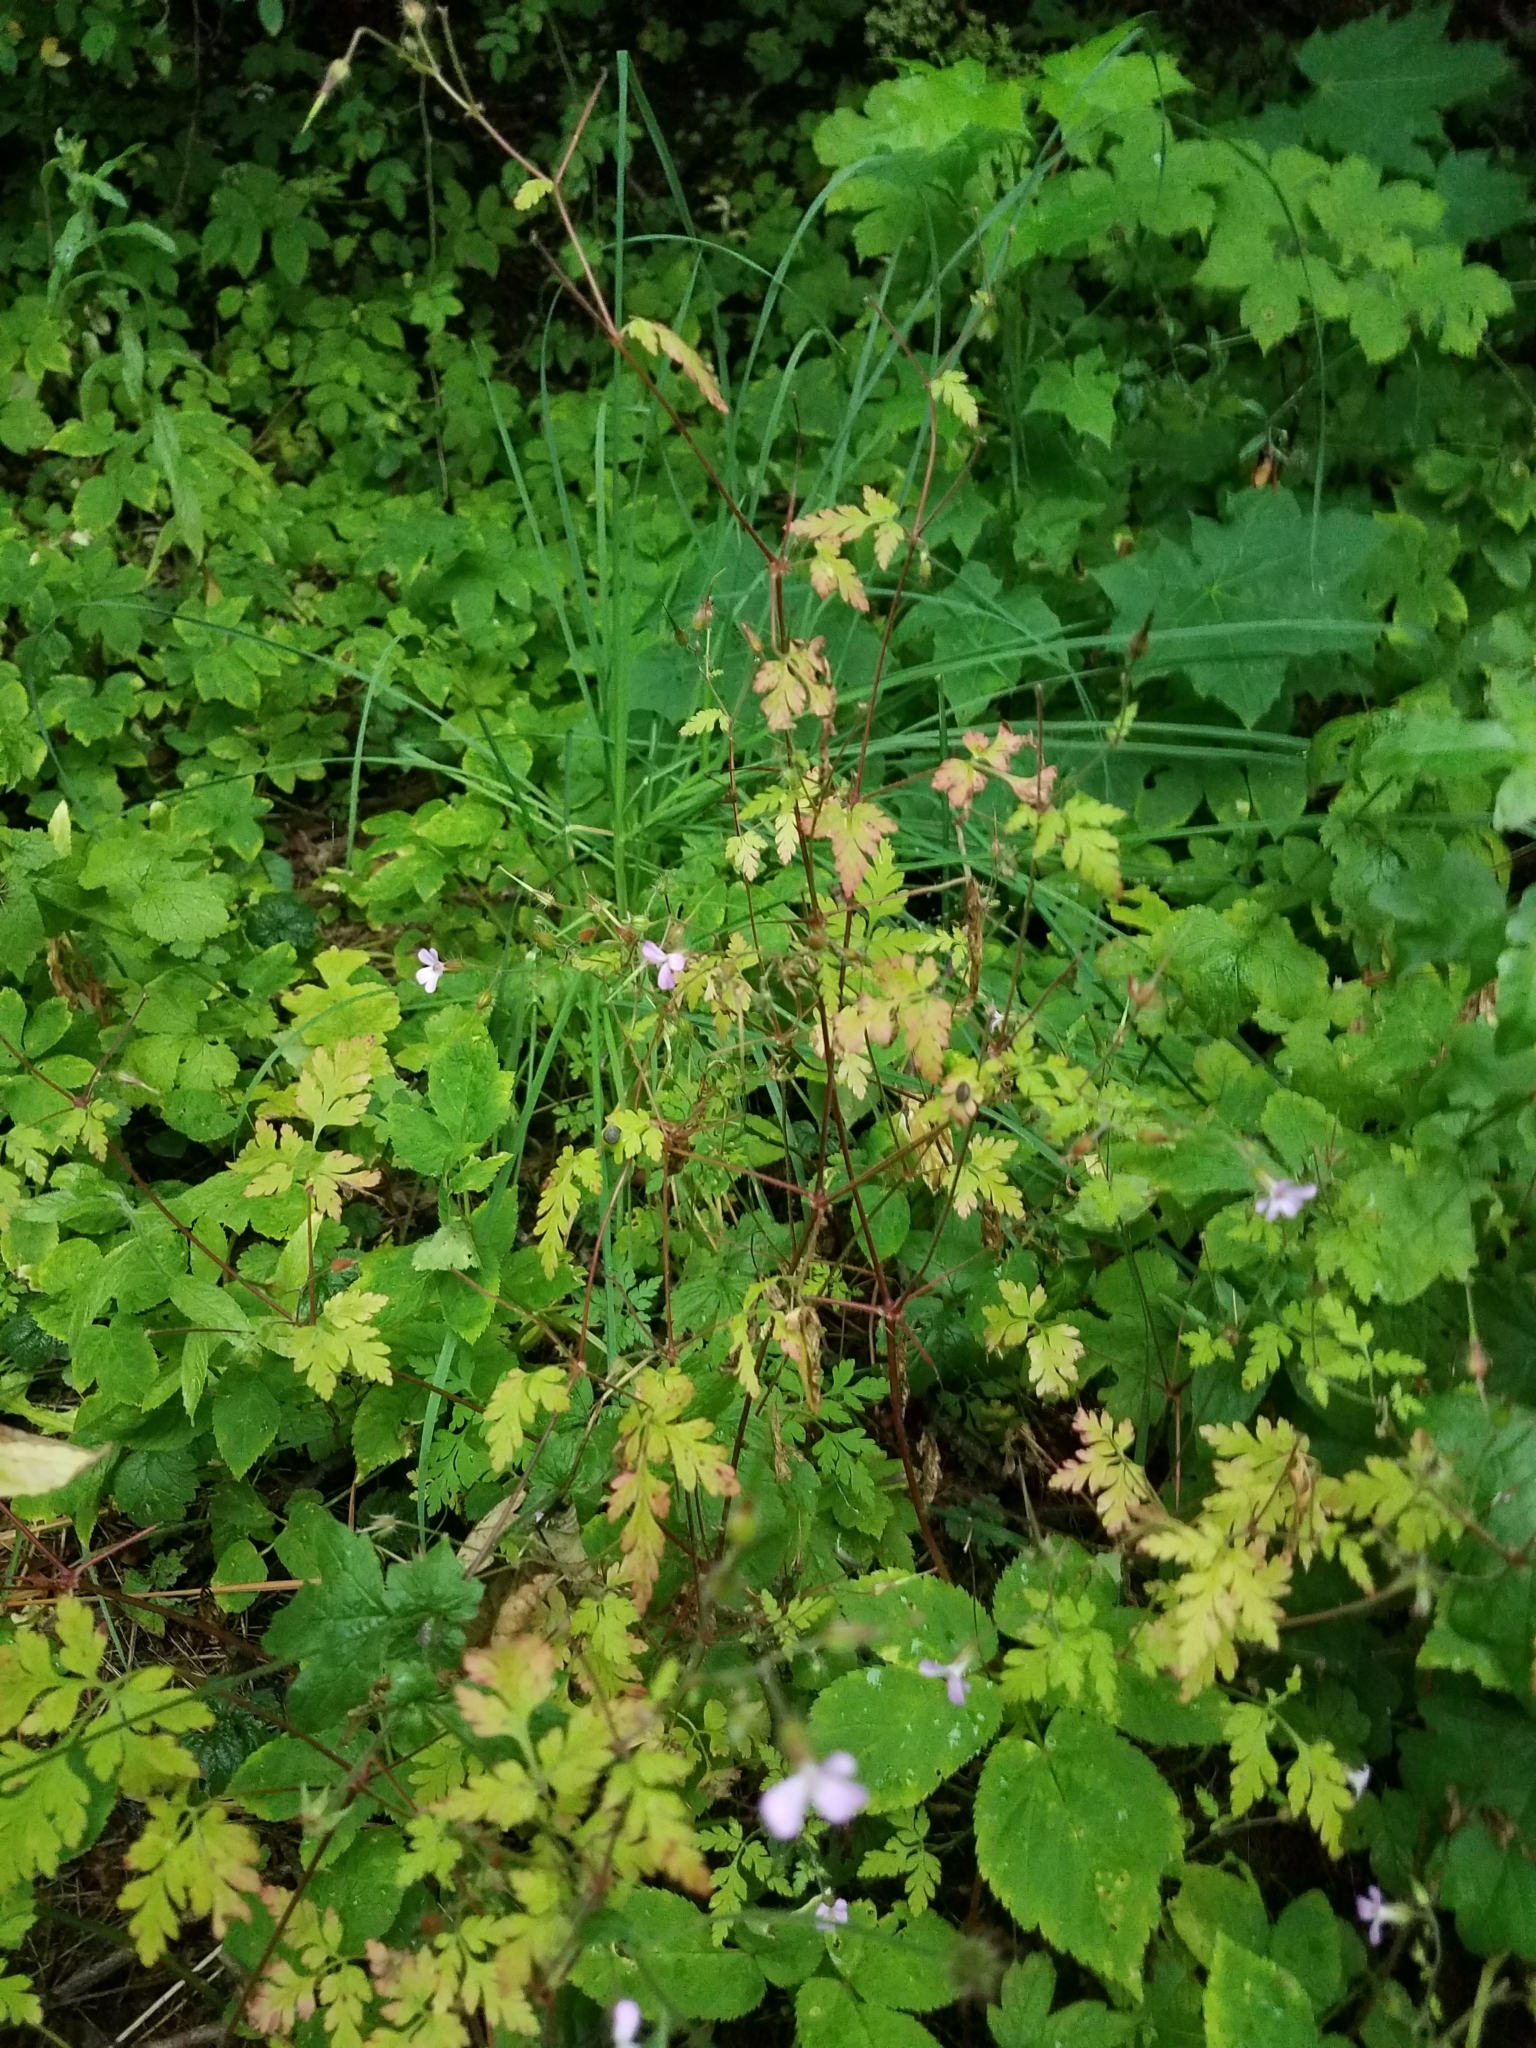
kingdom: Plantae
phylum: Tracheophyta
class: Magnoliopsida
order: Geraniales
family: Geraniaceae
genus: Geranium
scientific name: Geranium robertianum
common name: Herb-robert
